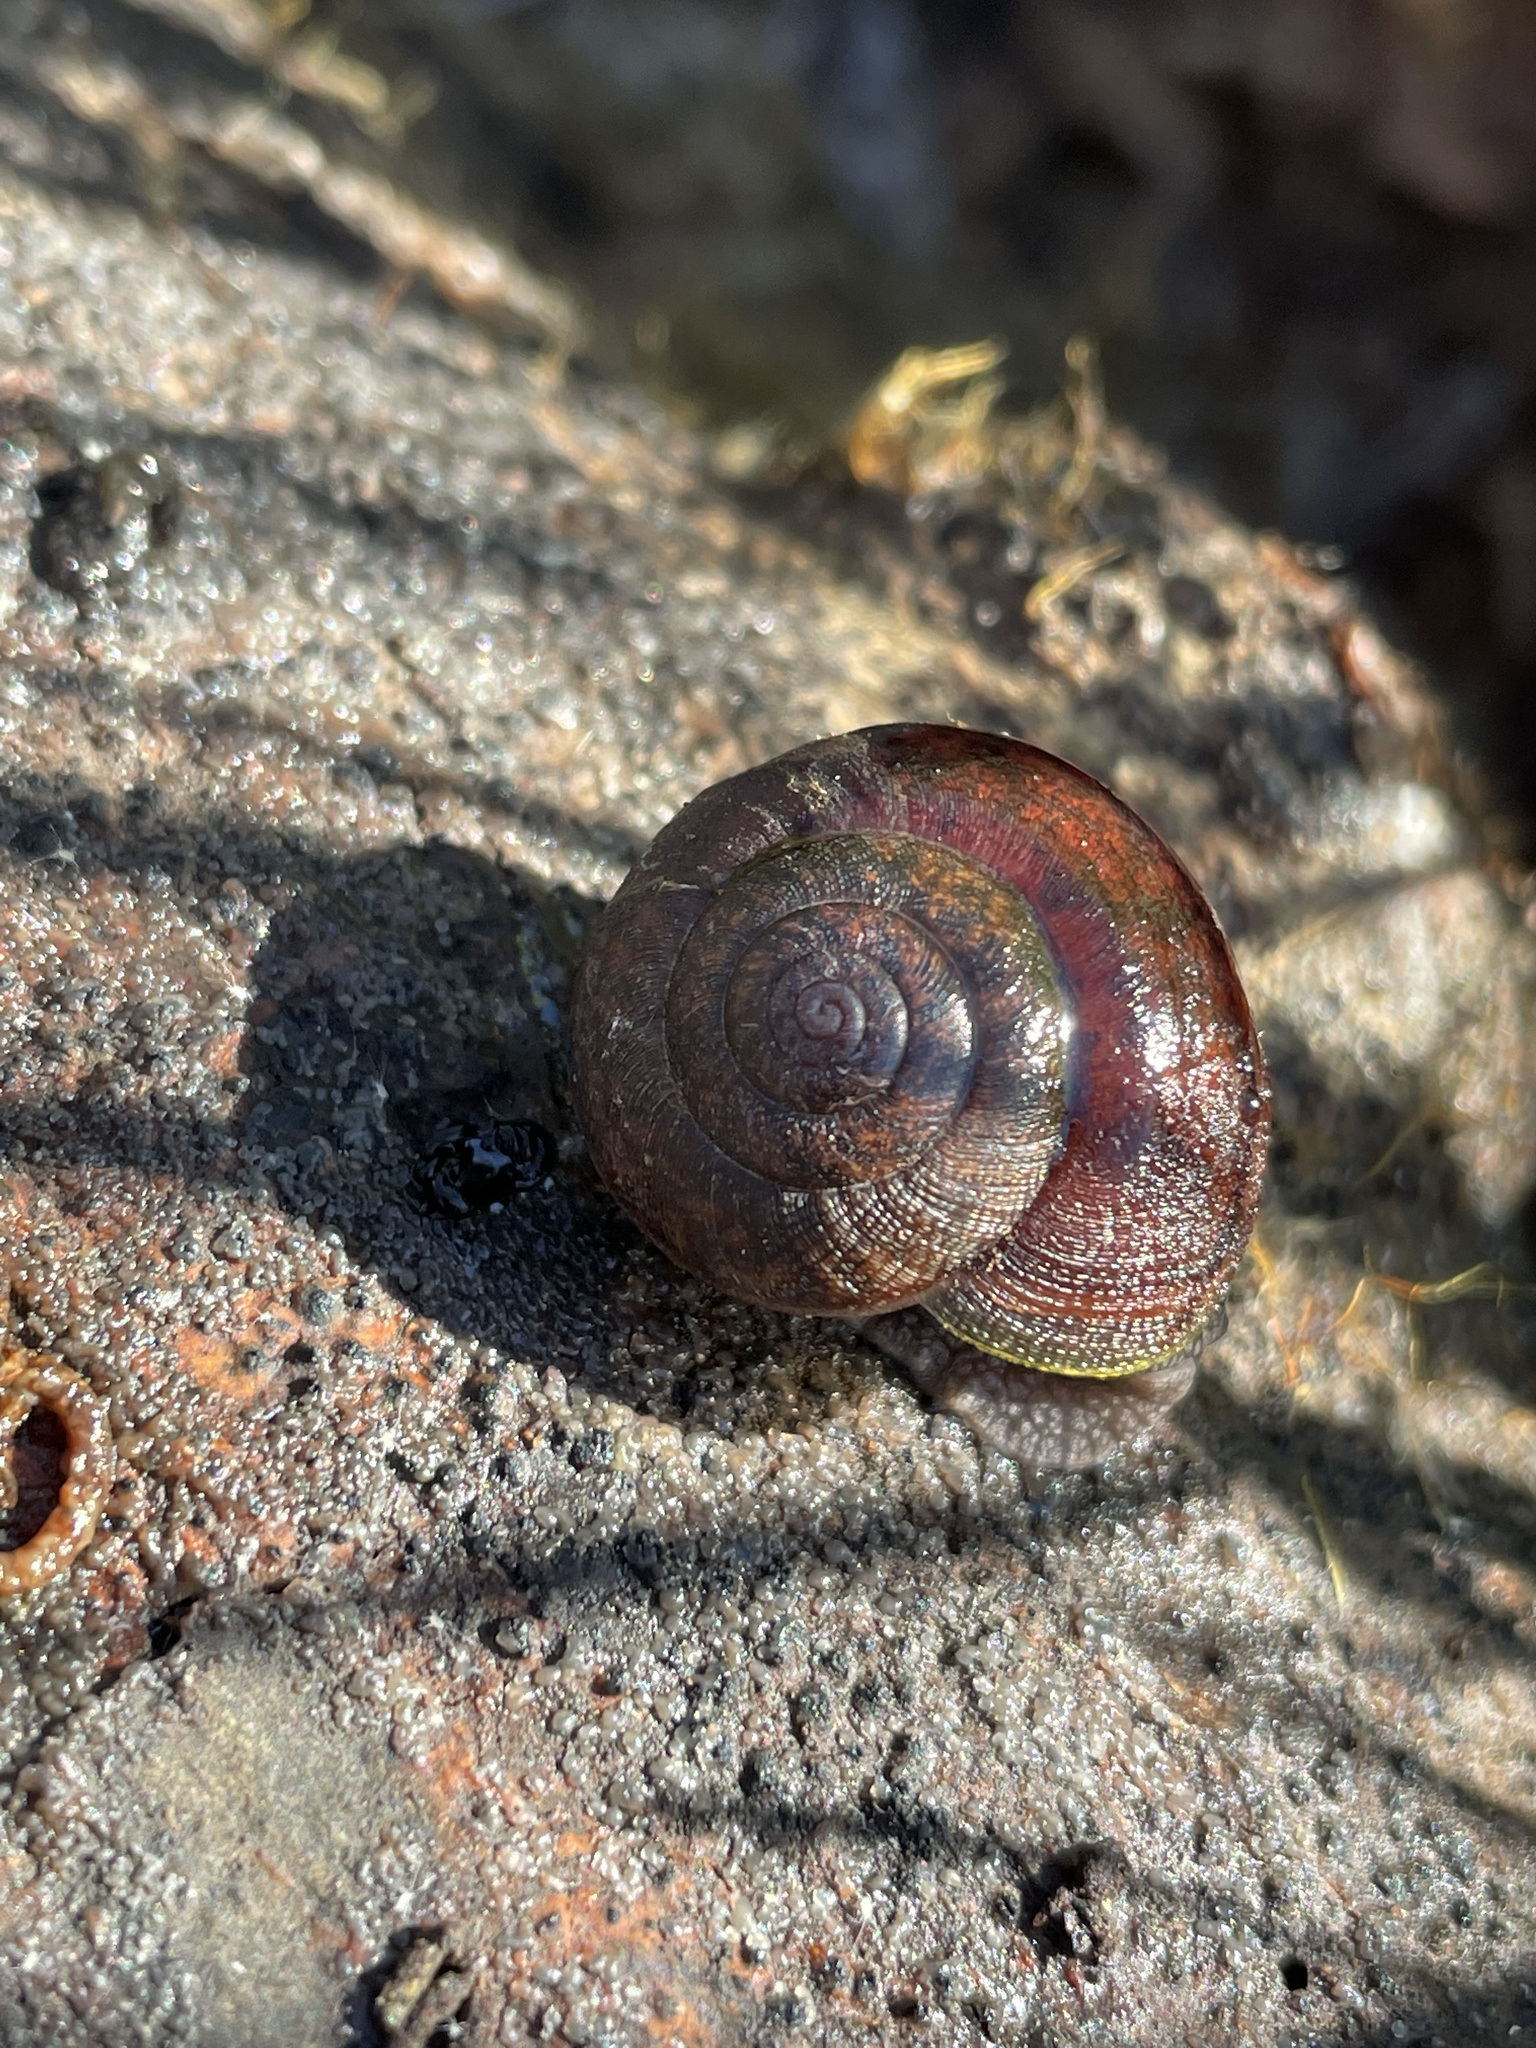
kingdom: Animalia
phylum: Mollusca
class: Gastropoda
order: Stylommatophora
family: Xanthonychidae
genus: Helminthoglypta
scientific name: Helminthoglypta nickliniana
